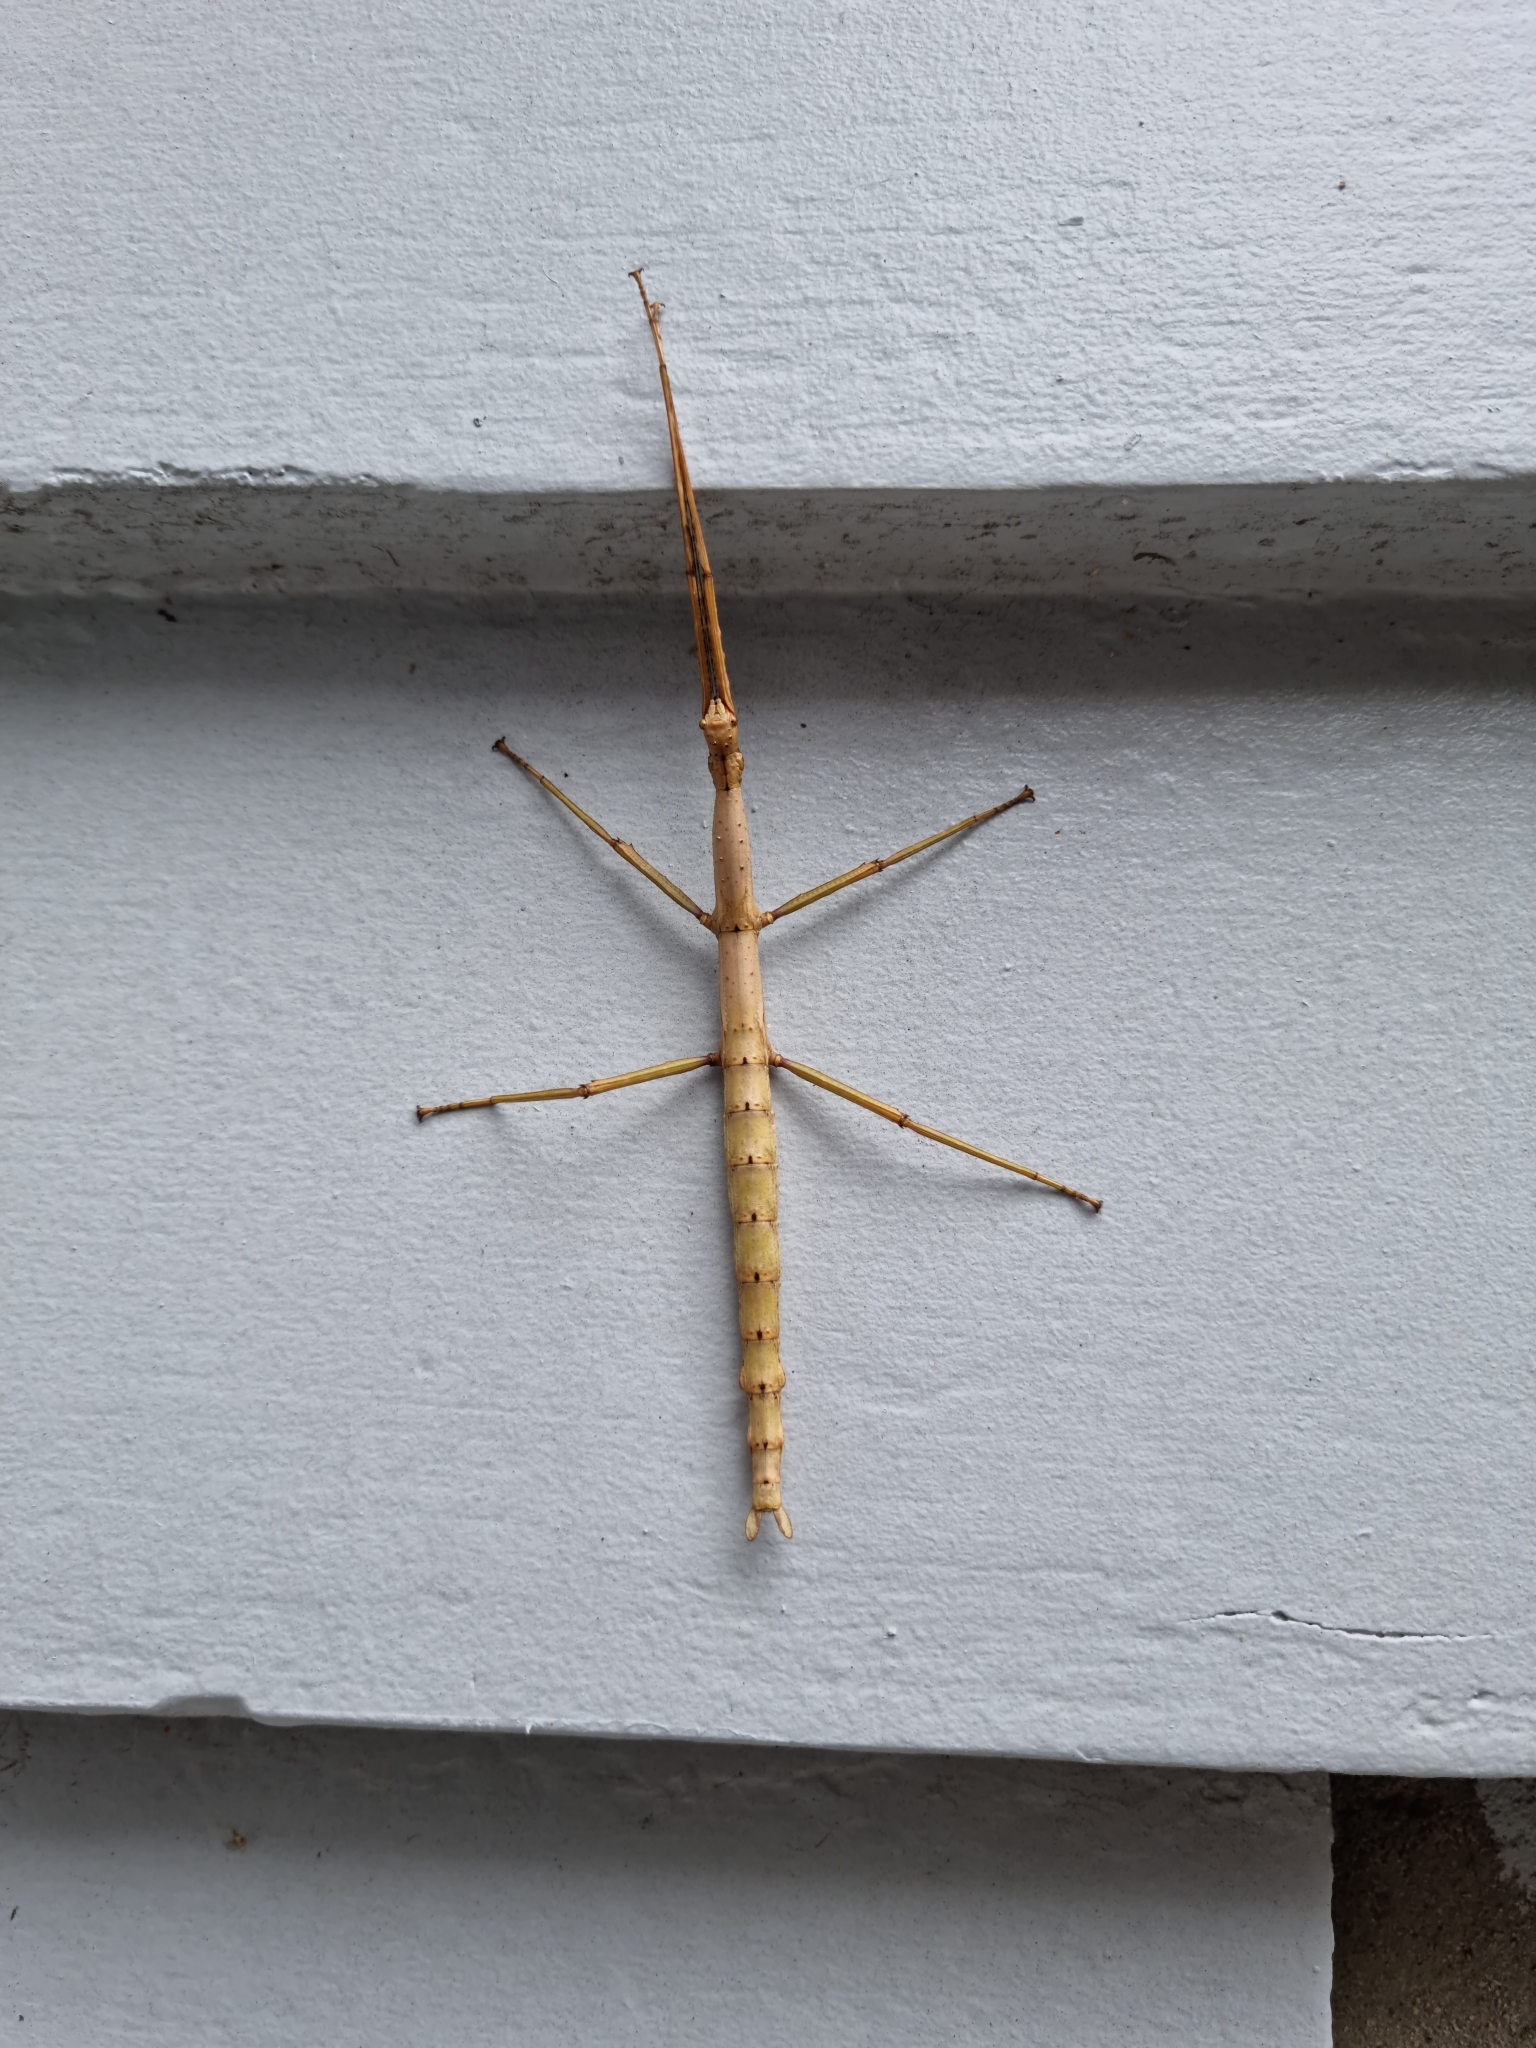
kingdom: Animalia
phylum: Arthropoda
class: Insecta
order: Phasmida
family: Phasmatidae
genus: Acanthoxyla
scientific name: Acanthoxyla prasina
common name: Black-spined stick insect
